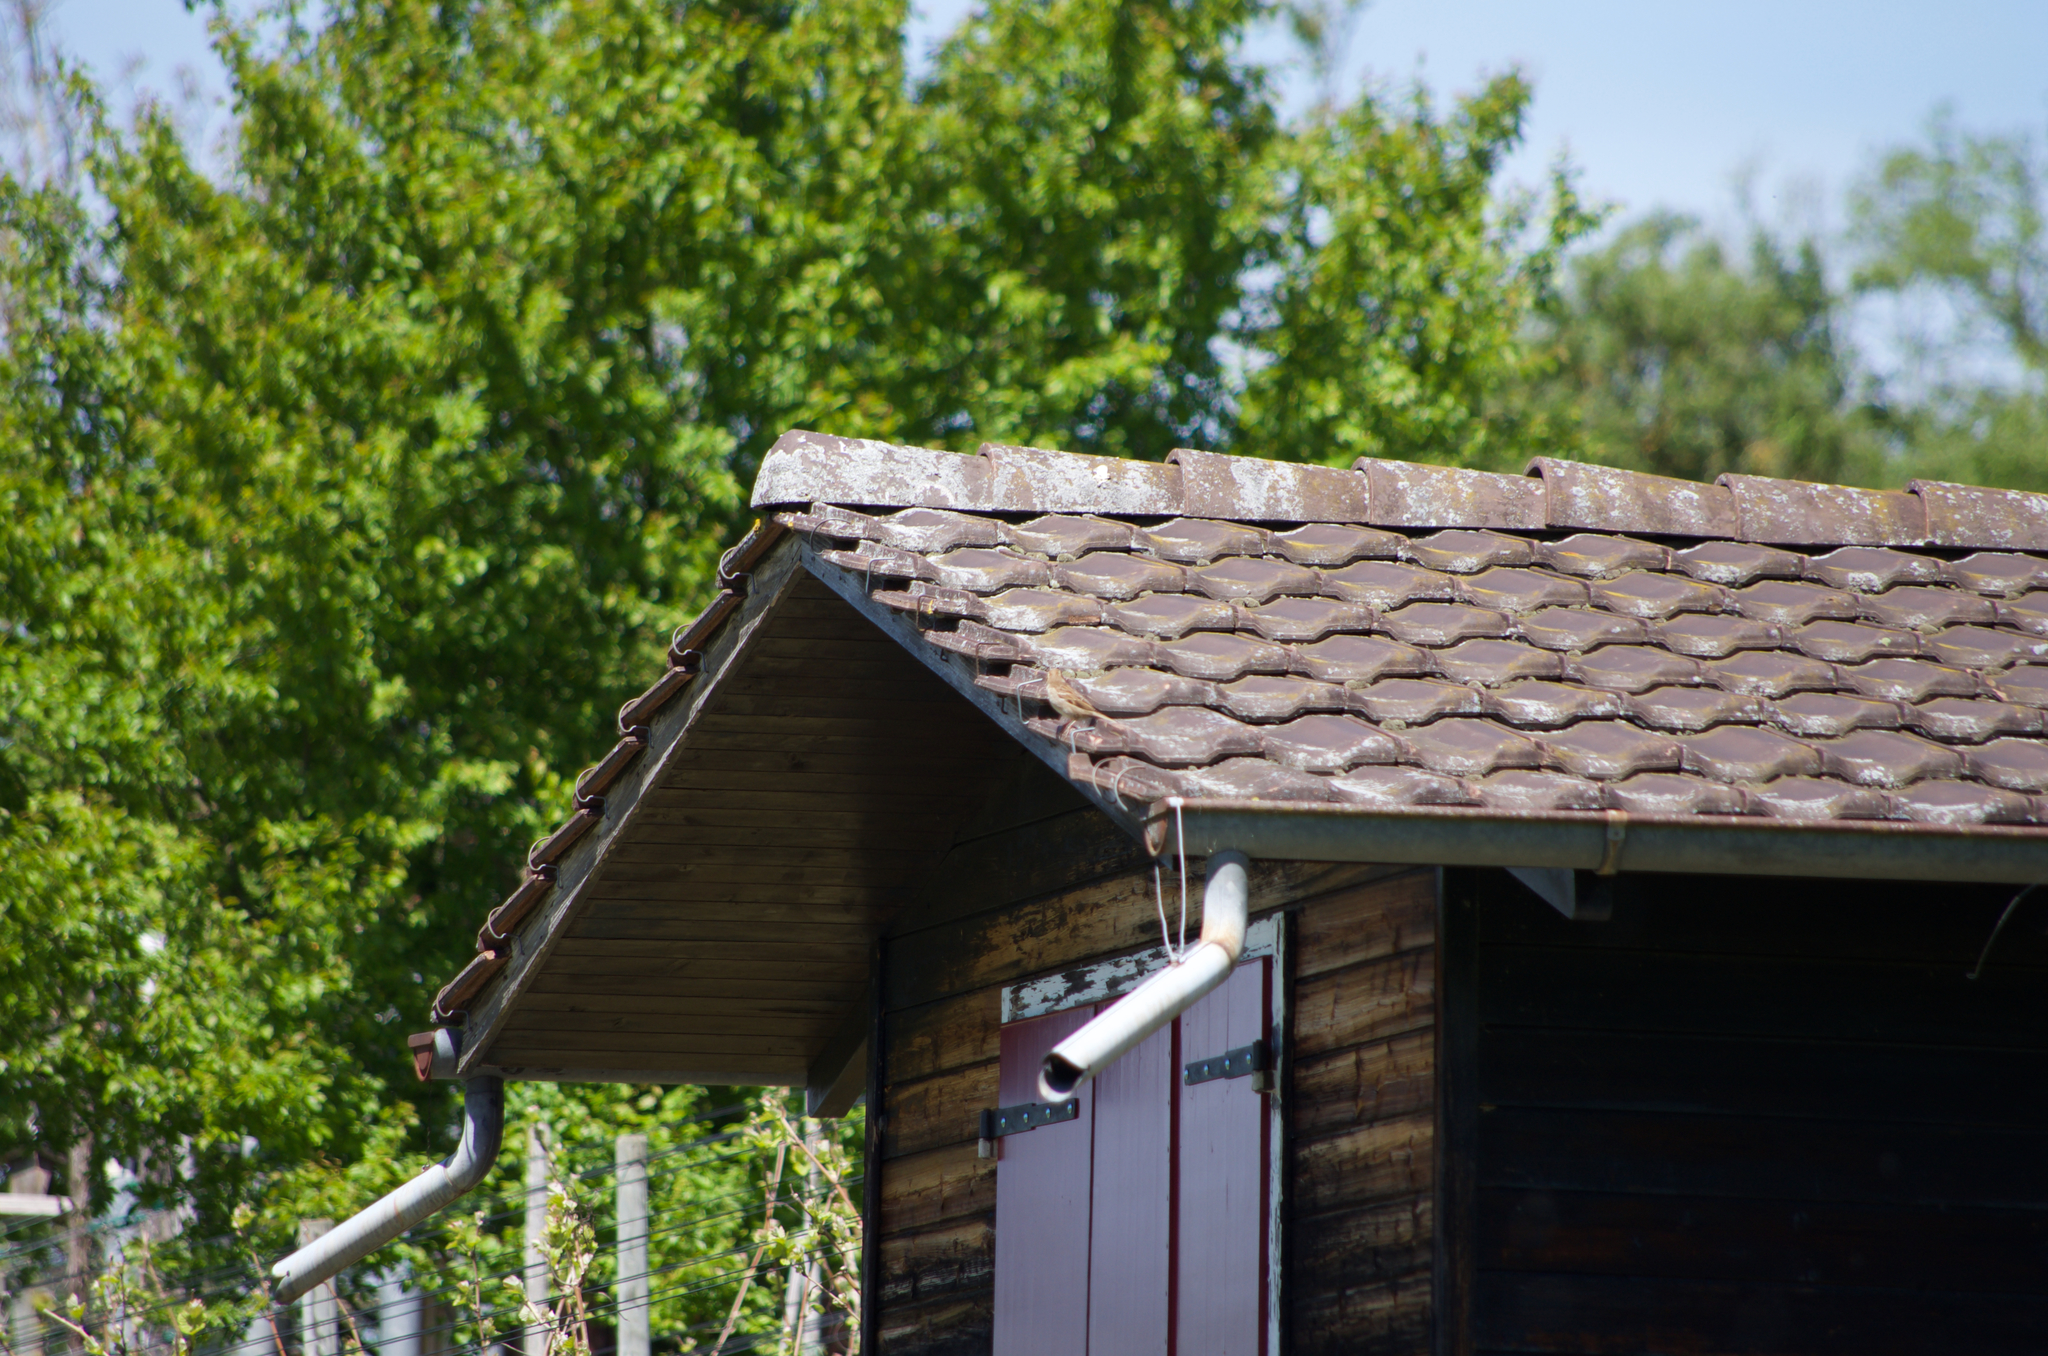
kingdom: Animalia
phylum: Chordata
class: Aves
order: Passeriformes
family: Passeridae
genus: Passer
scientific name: Passer domesticus
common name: House sparrow
